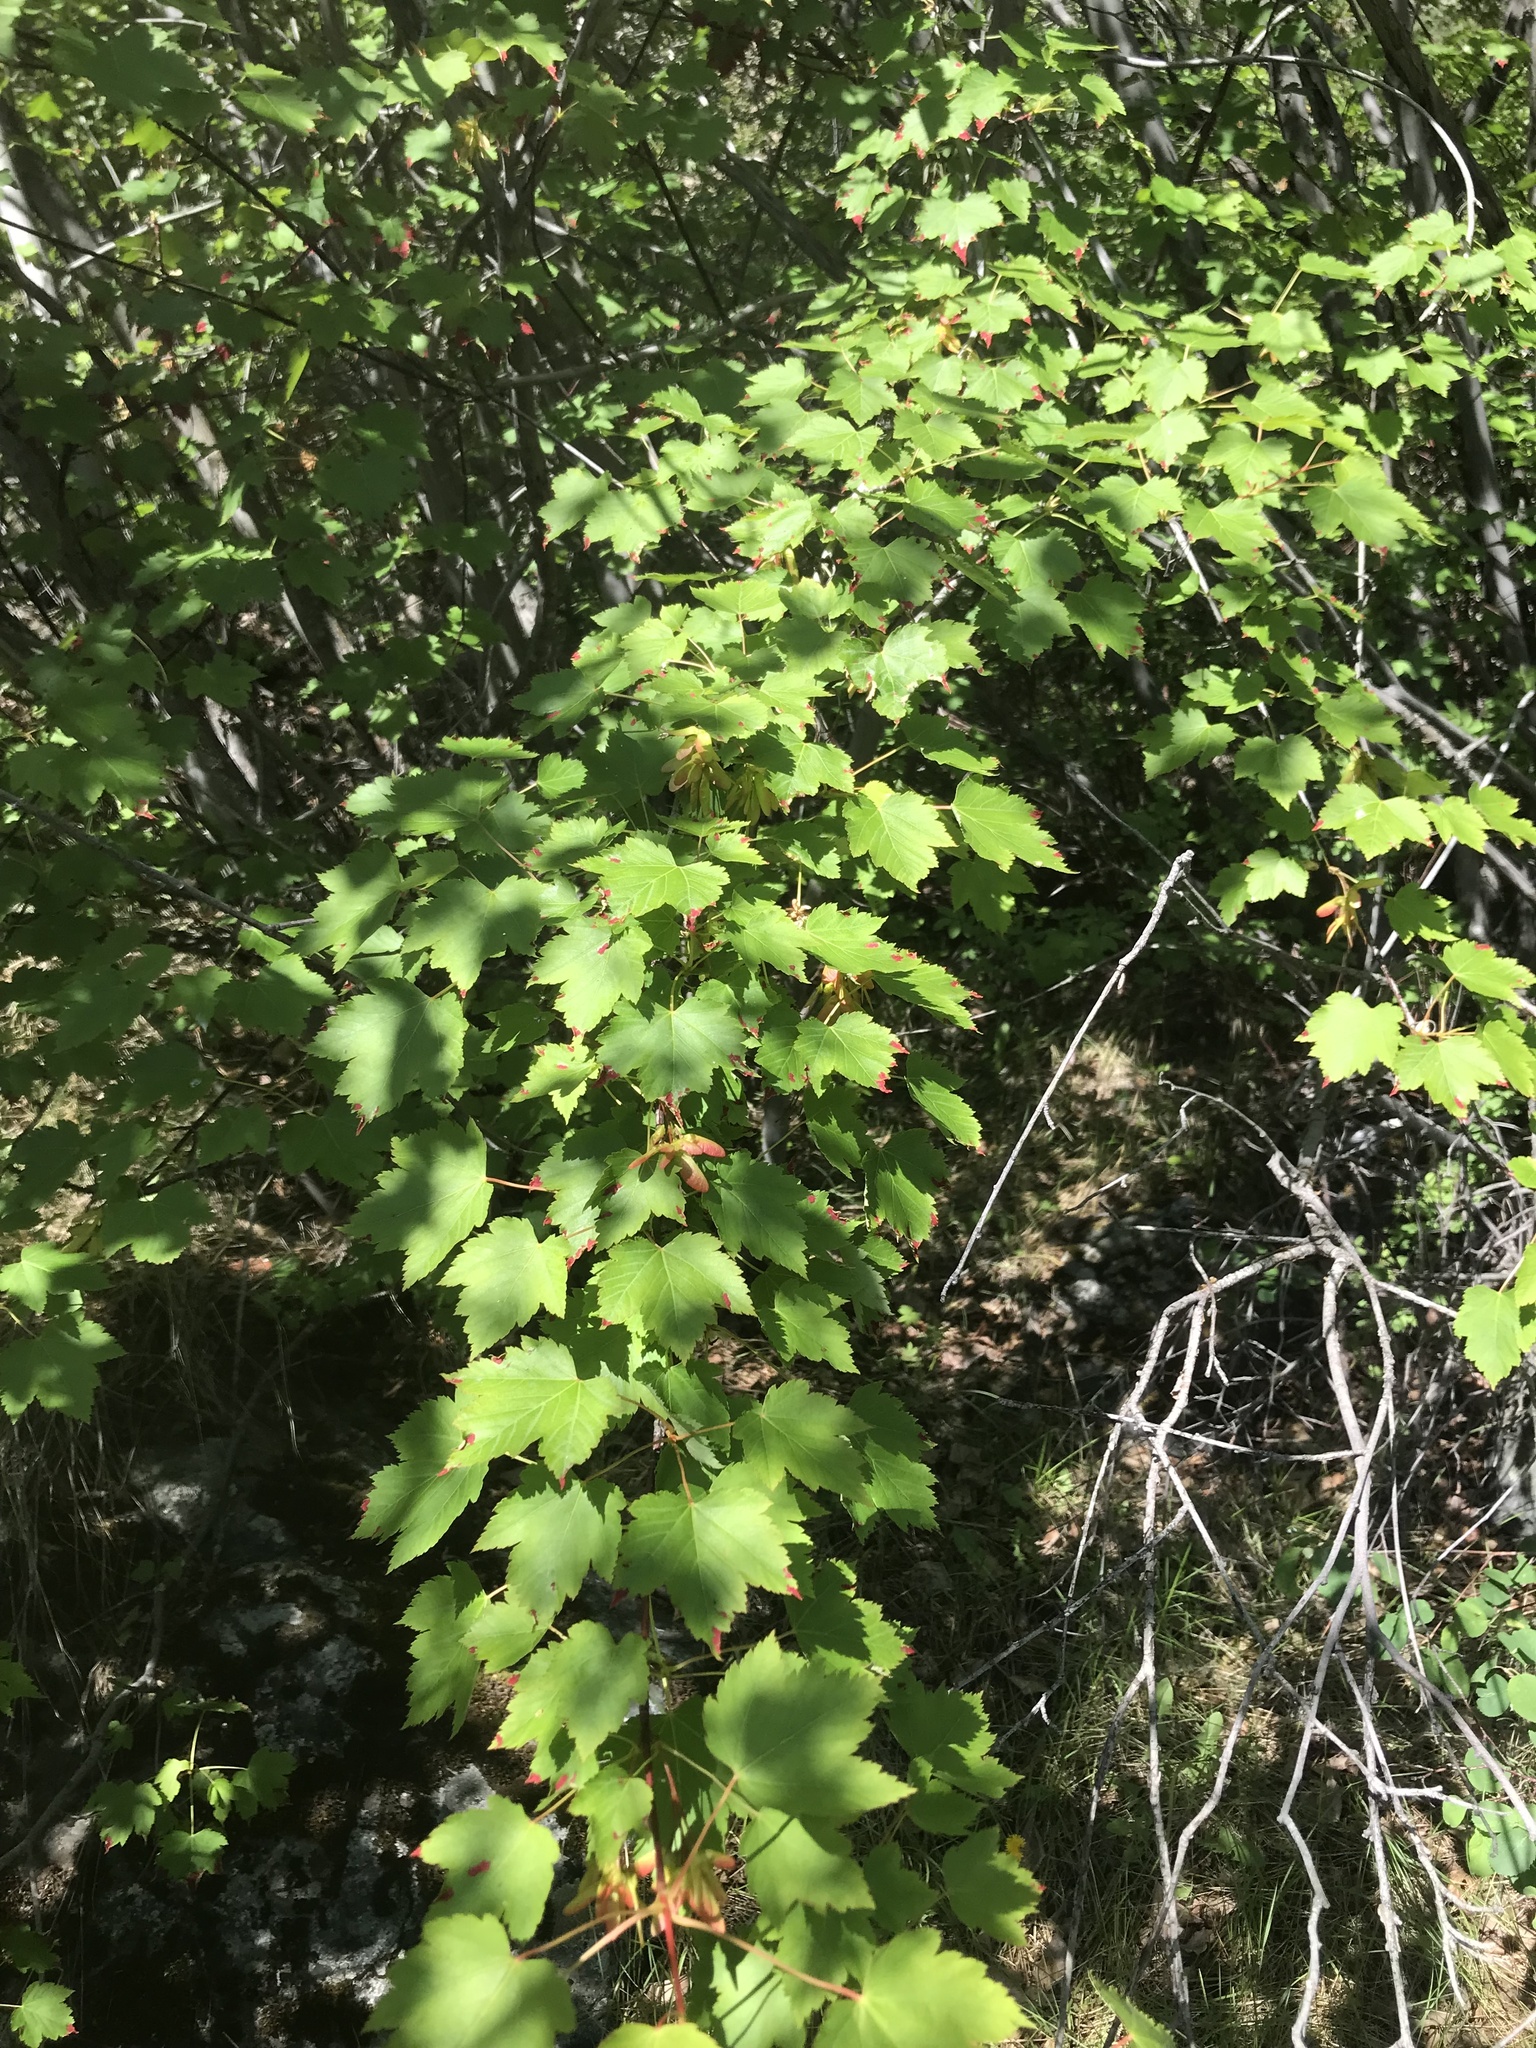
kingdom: Plantae
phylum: Tracheophyta
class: Magnoliopsida
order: Sapindales
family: Sapindaceae
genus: Acer
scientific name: Acer glabrum
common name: Rocky mountain maple
